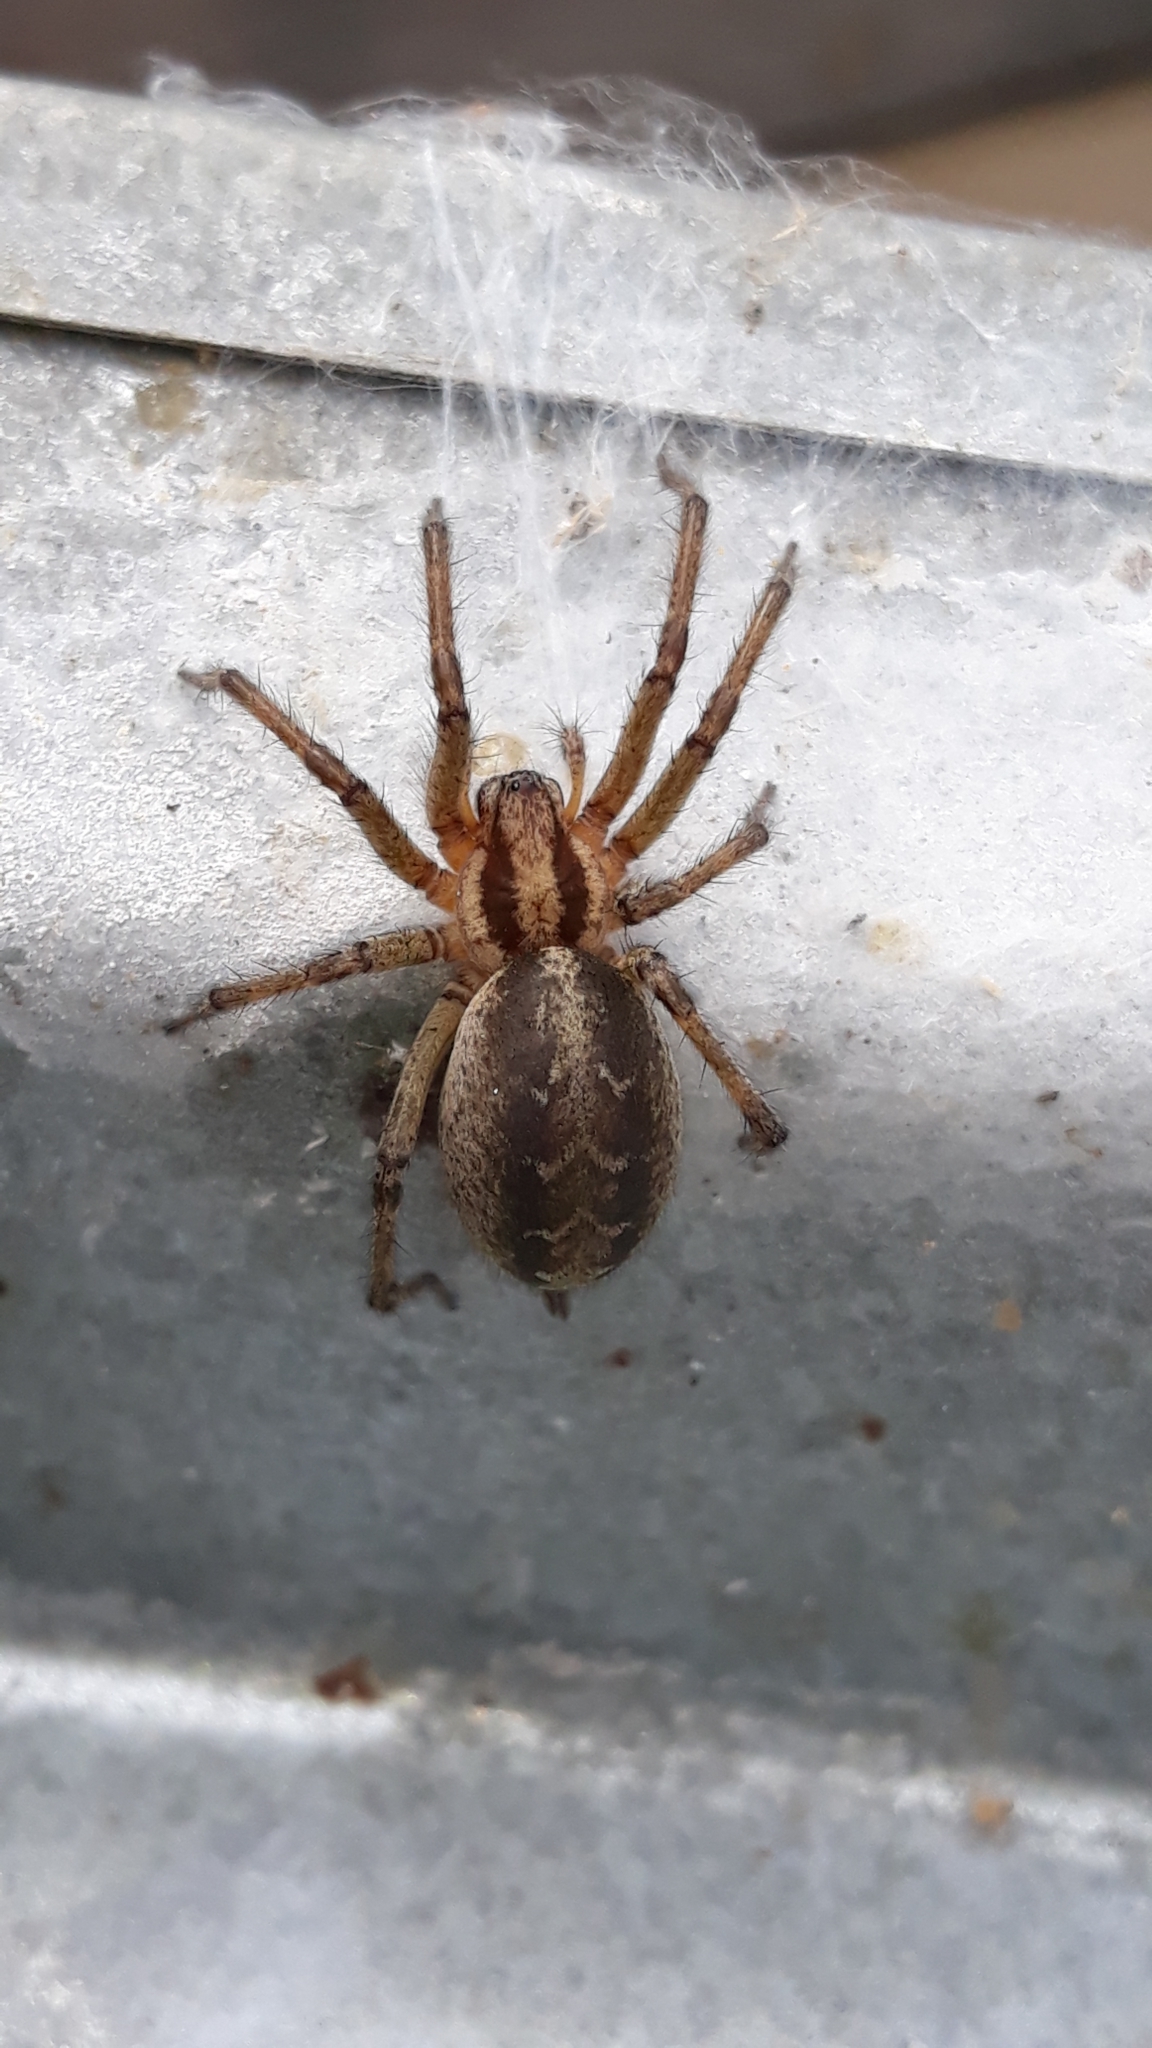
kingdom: Animalia
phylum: Arthropoda
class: Arachnida
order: Araneae
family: Agelenidae
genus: Agelena
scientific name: Agelena labyrinthica
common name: Labyrinth spider
